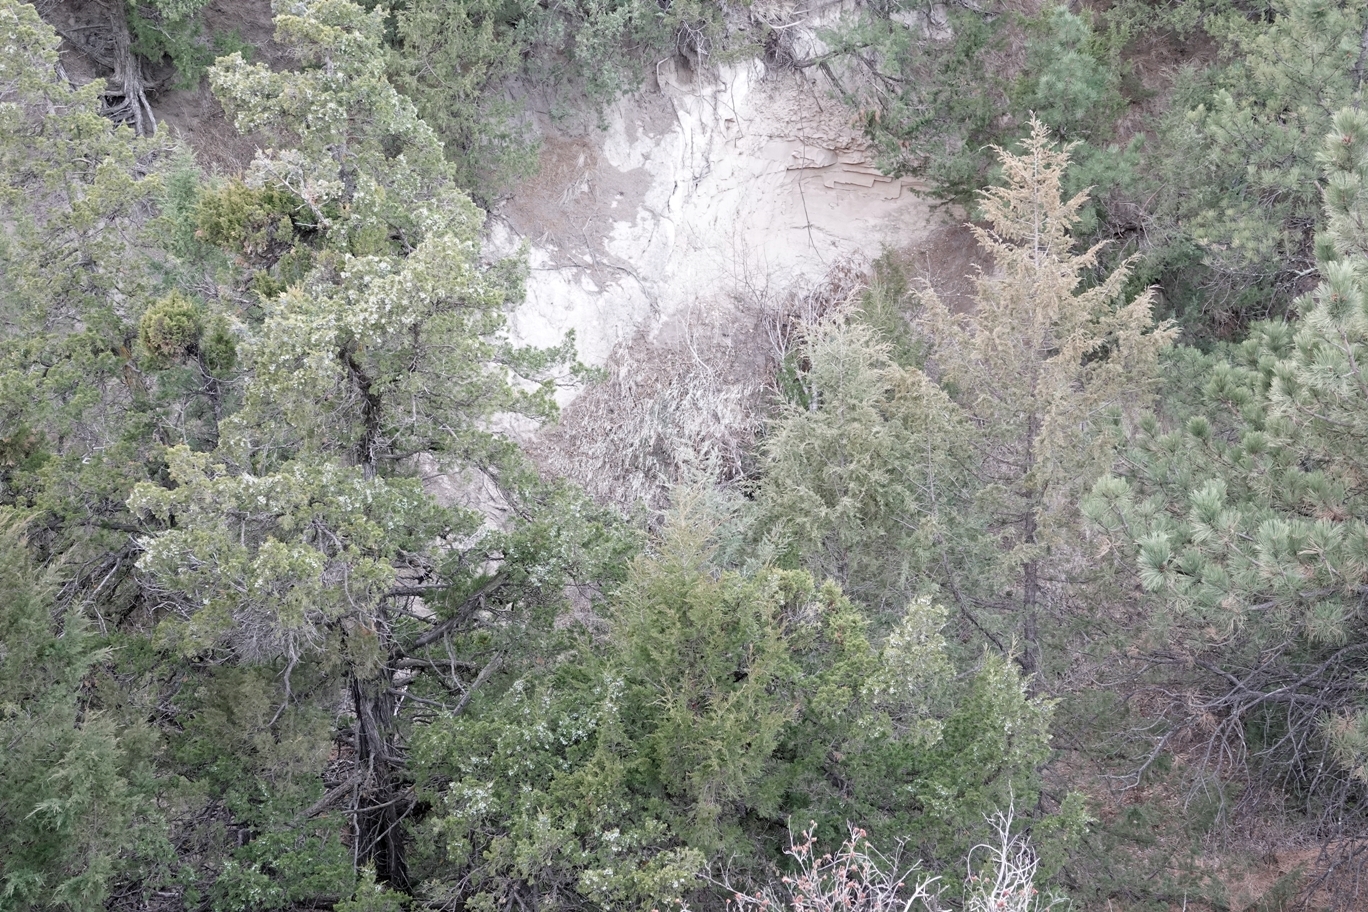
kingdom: Plantae
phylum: Tracheophyta
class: Magnoliopsida
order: Rosales
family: Elaeagnaceae
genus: Elaeagnus
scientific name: Elaeagnus angustifolia
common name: Russian olive
